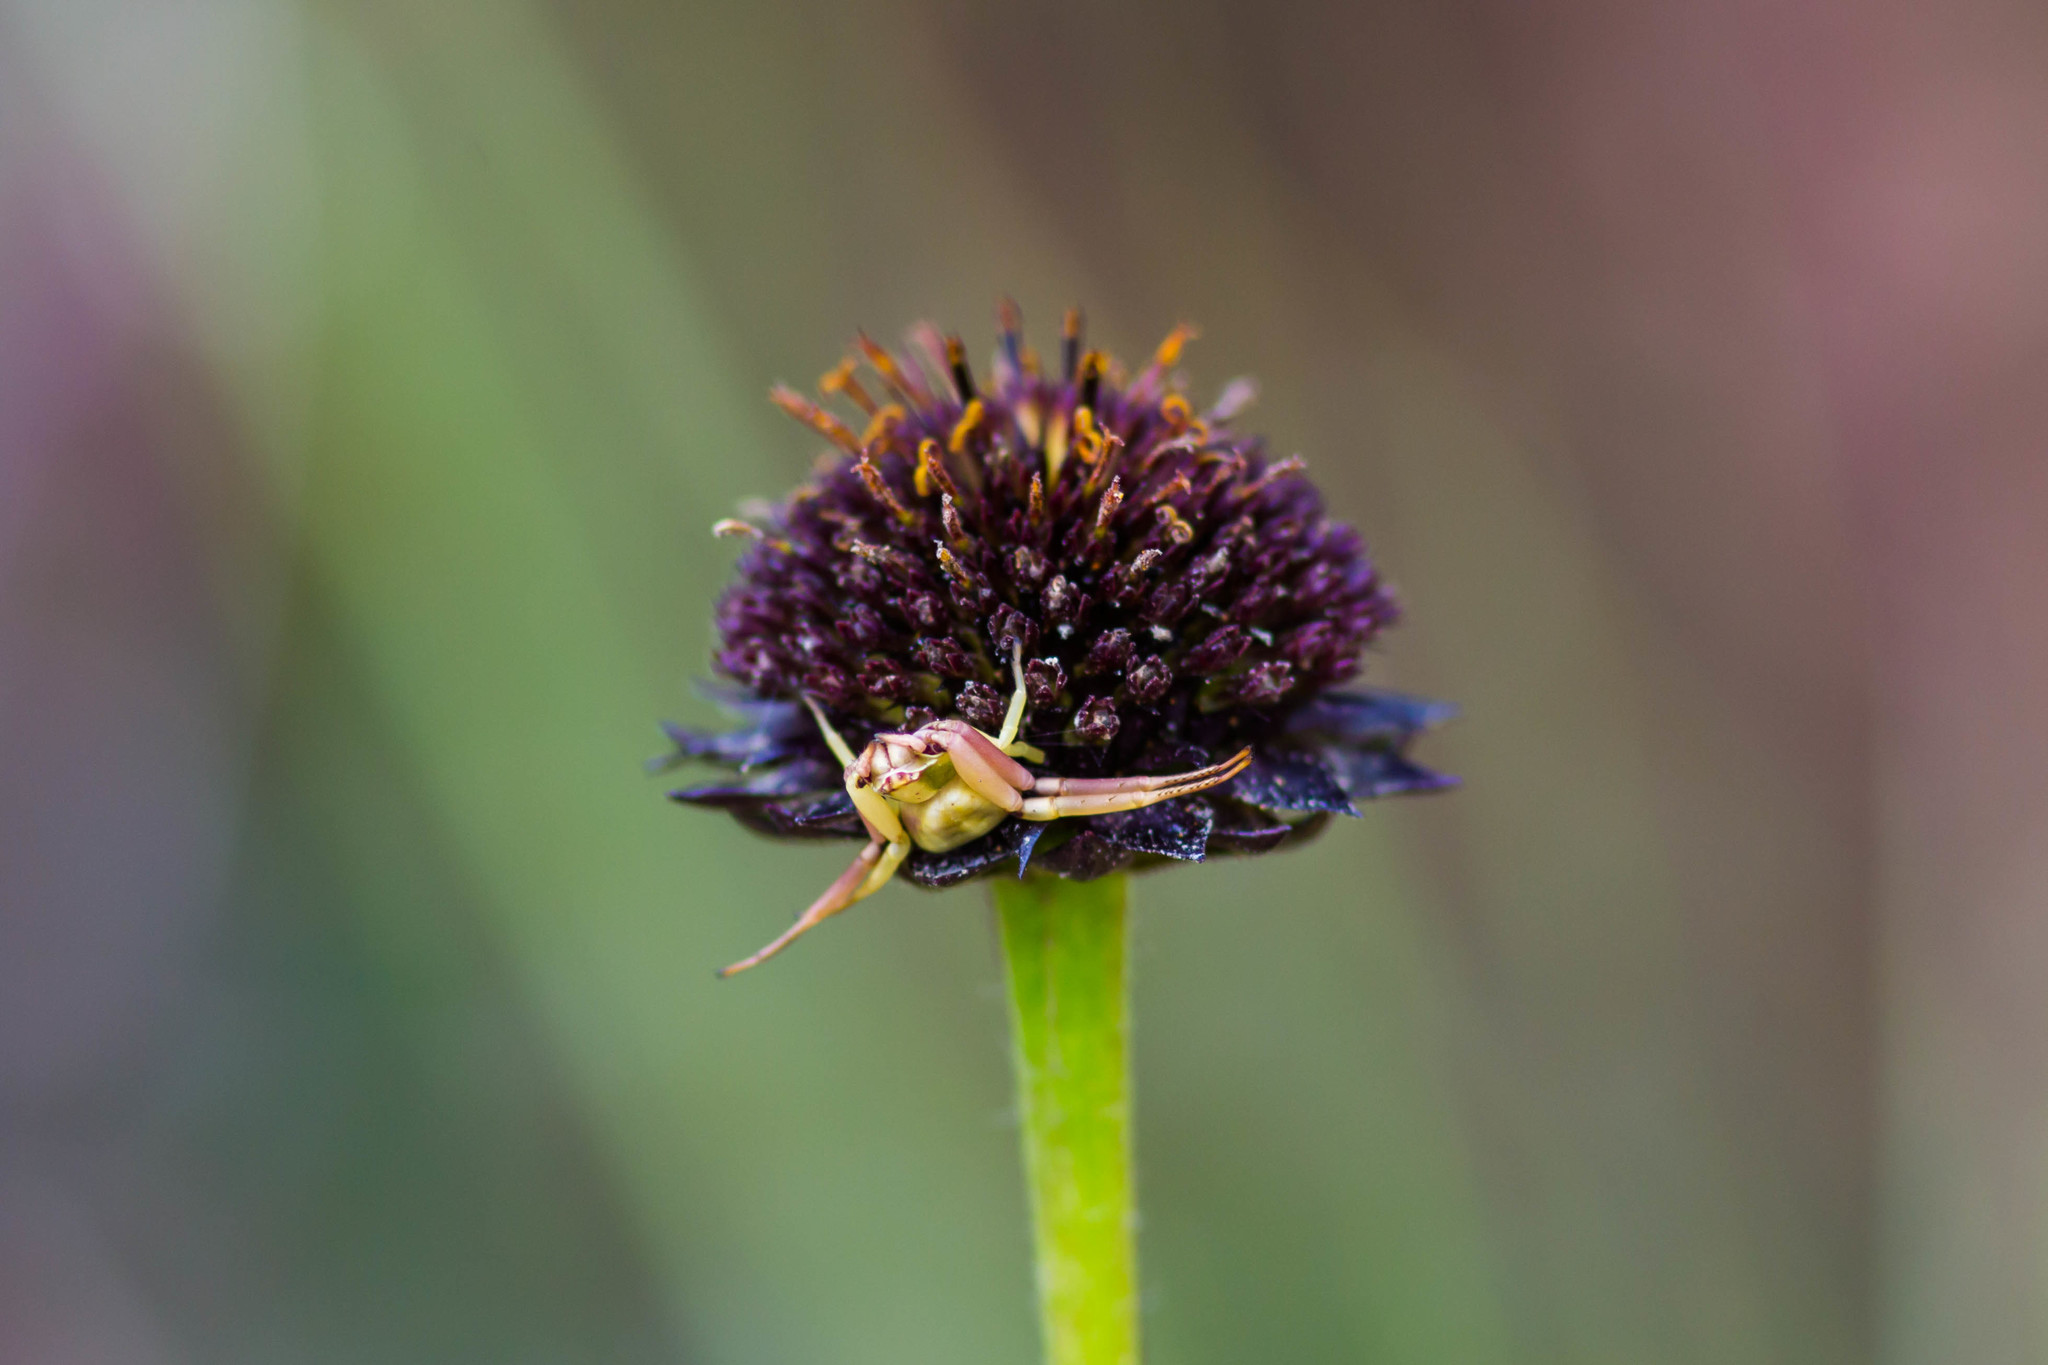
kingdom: Animalia
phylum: Arthropoda
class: Arachnida
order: Araneae
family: Thomisidae
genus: Misumenoides
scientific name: Misumenoides formosipes
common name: White-banded crab spider
